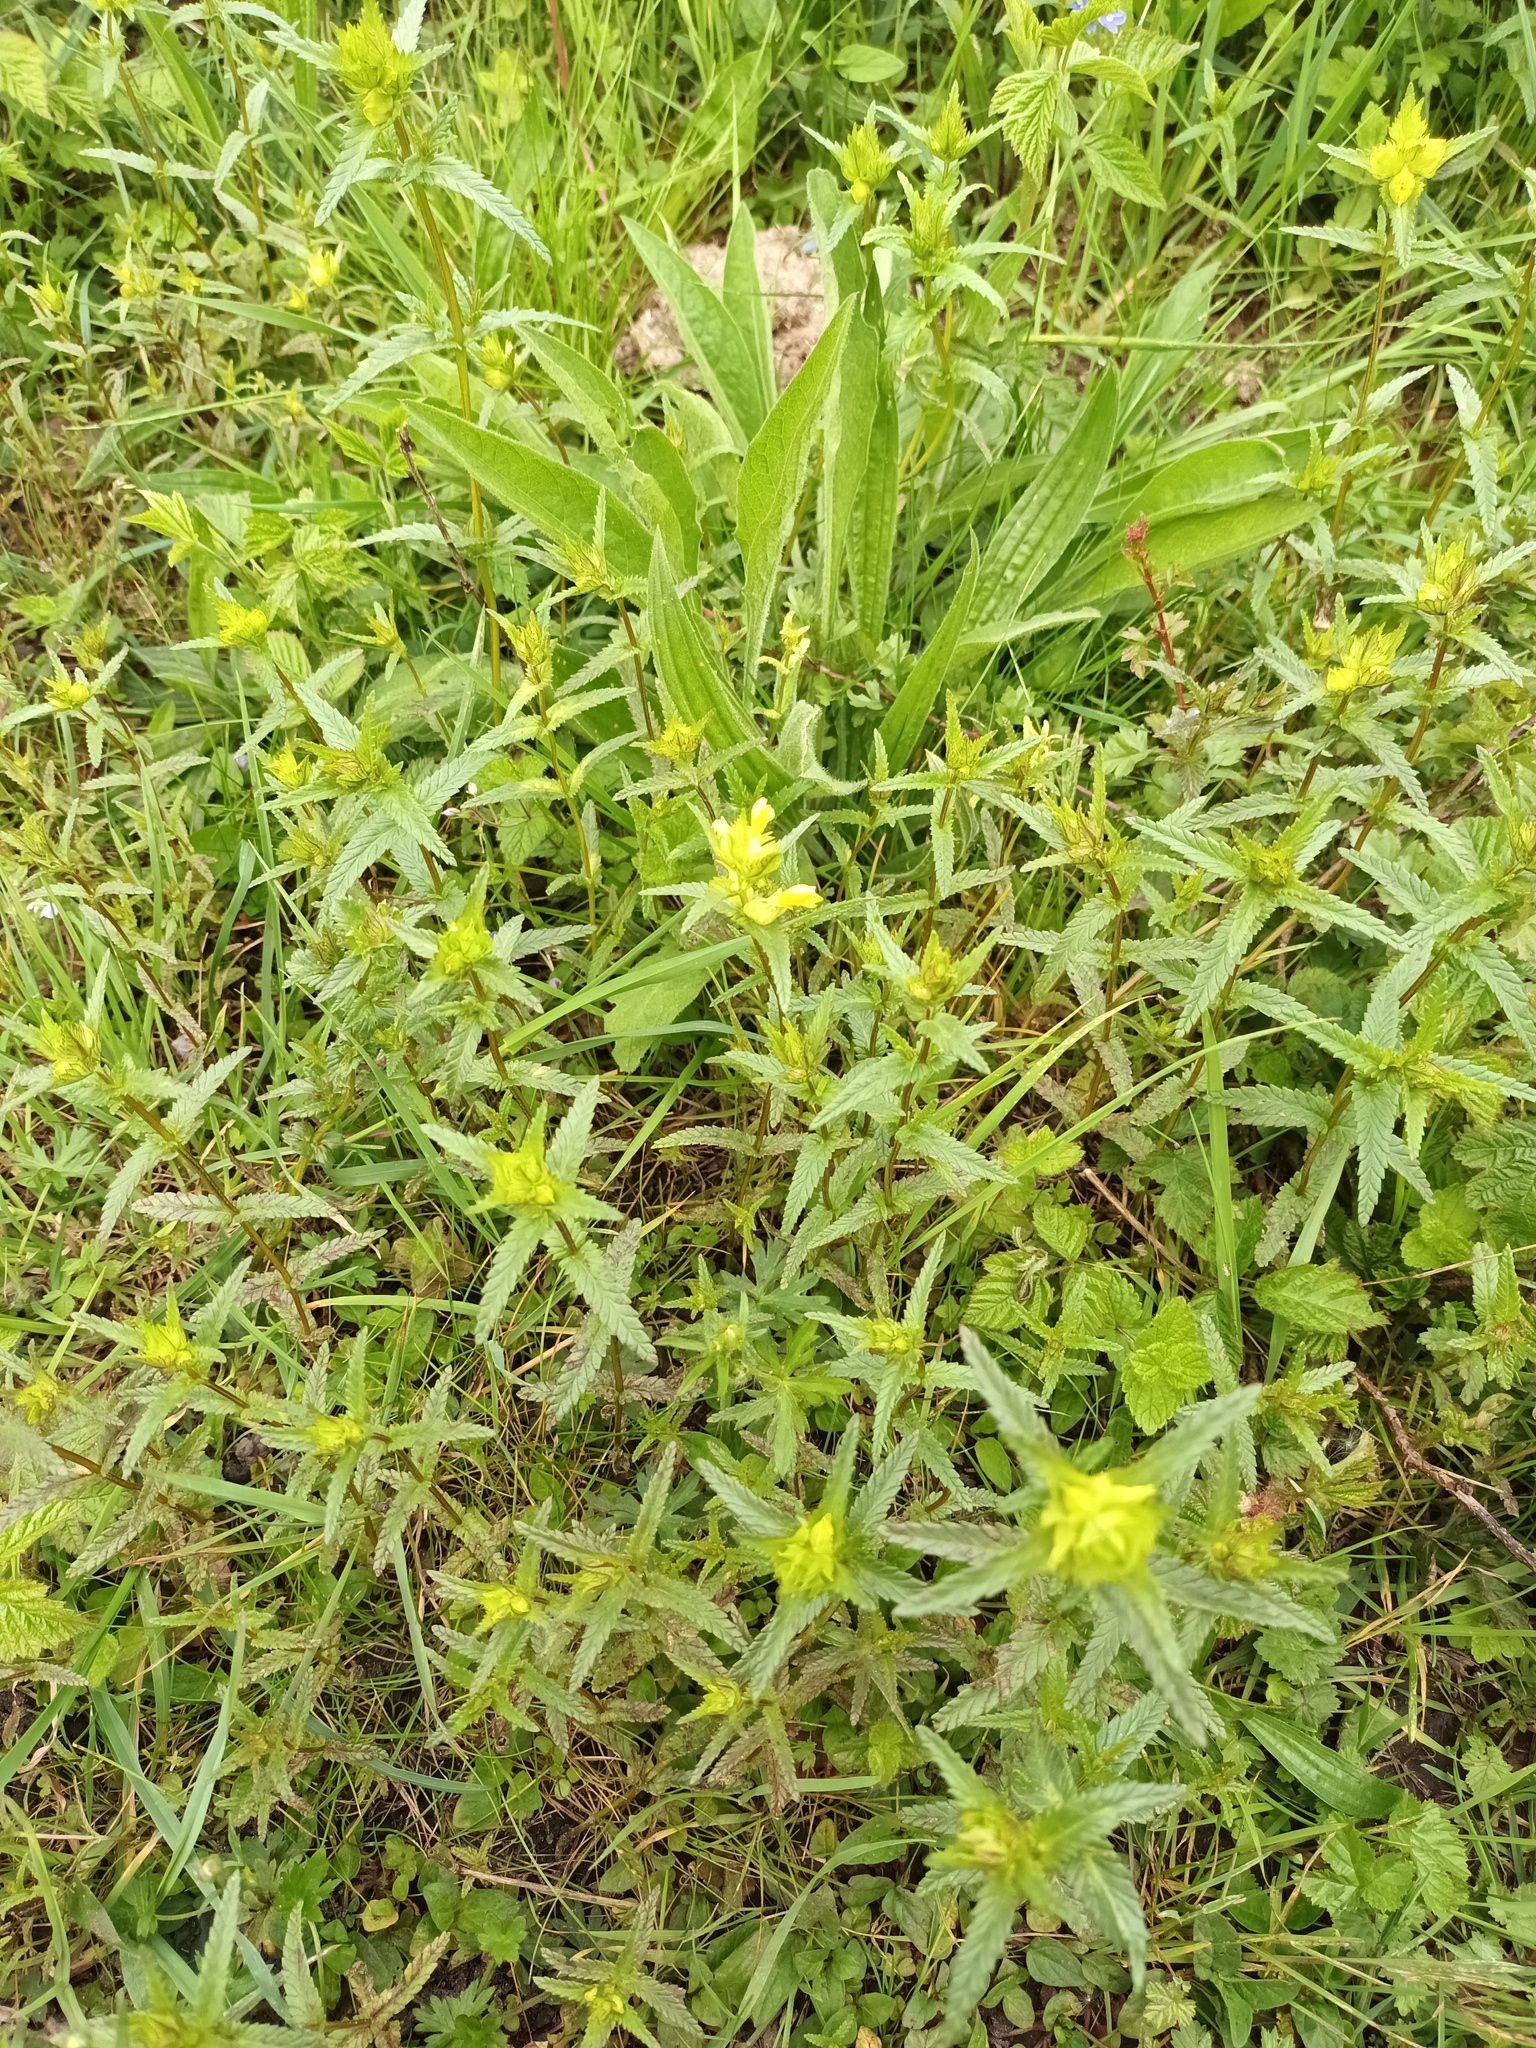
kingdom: Plantae
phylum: Tracheophyta
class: Magnoliopsida
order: Lamiales
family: Orobanchaceae
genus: Rhinanthus
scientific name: Rhinanthus minor
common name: Yellow-rattle
